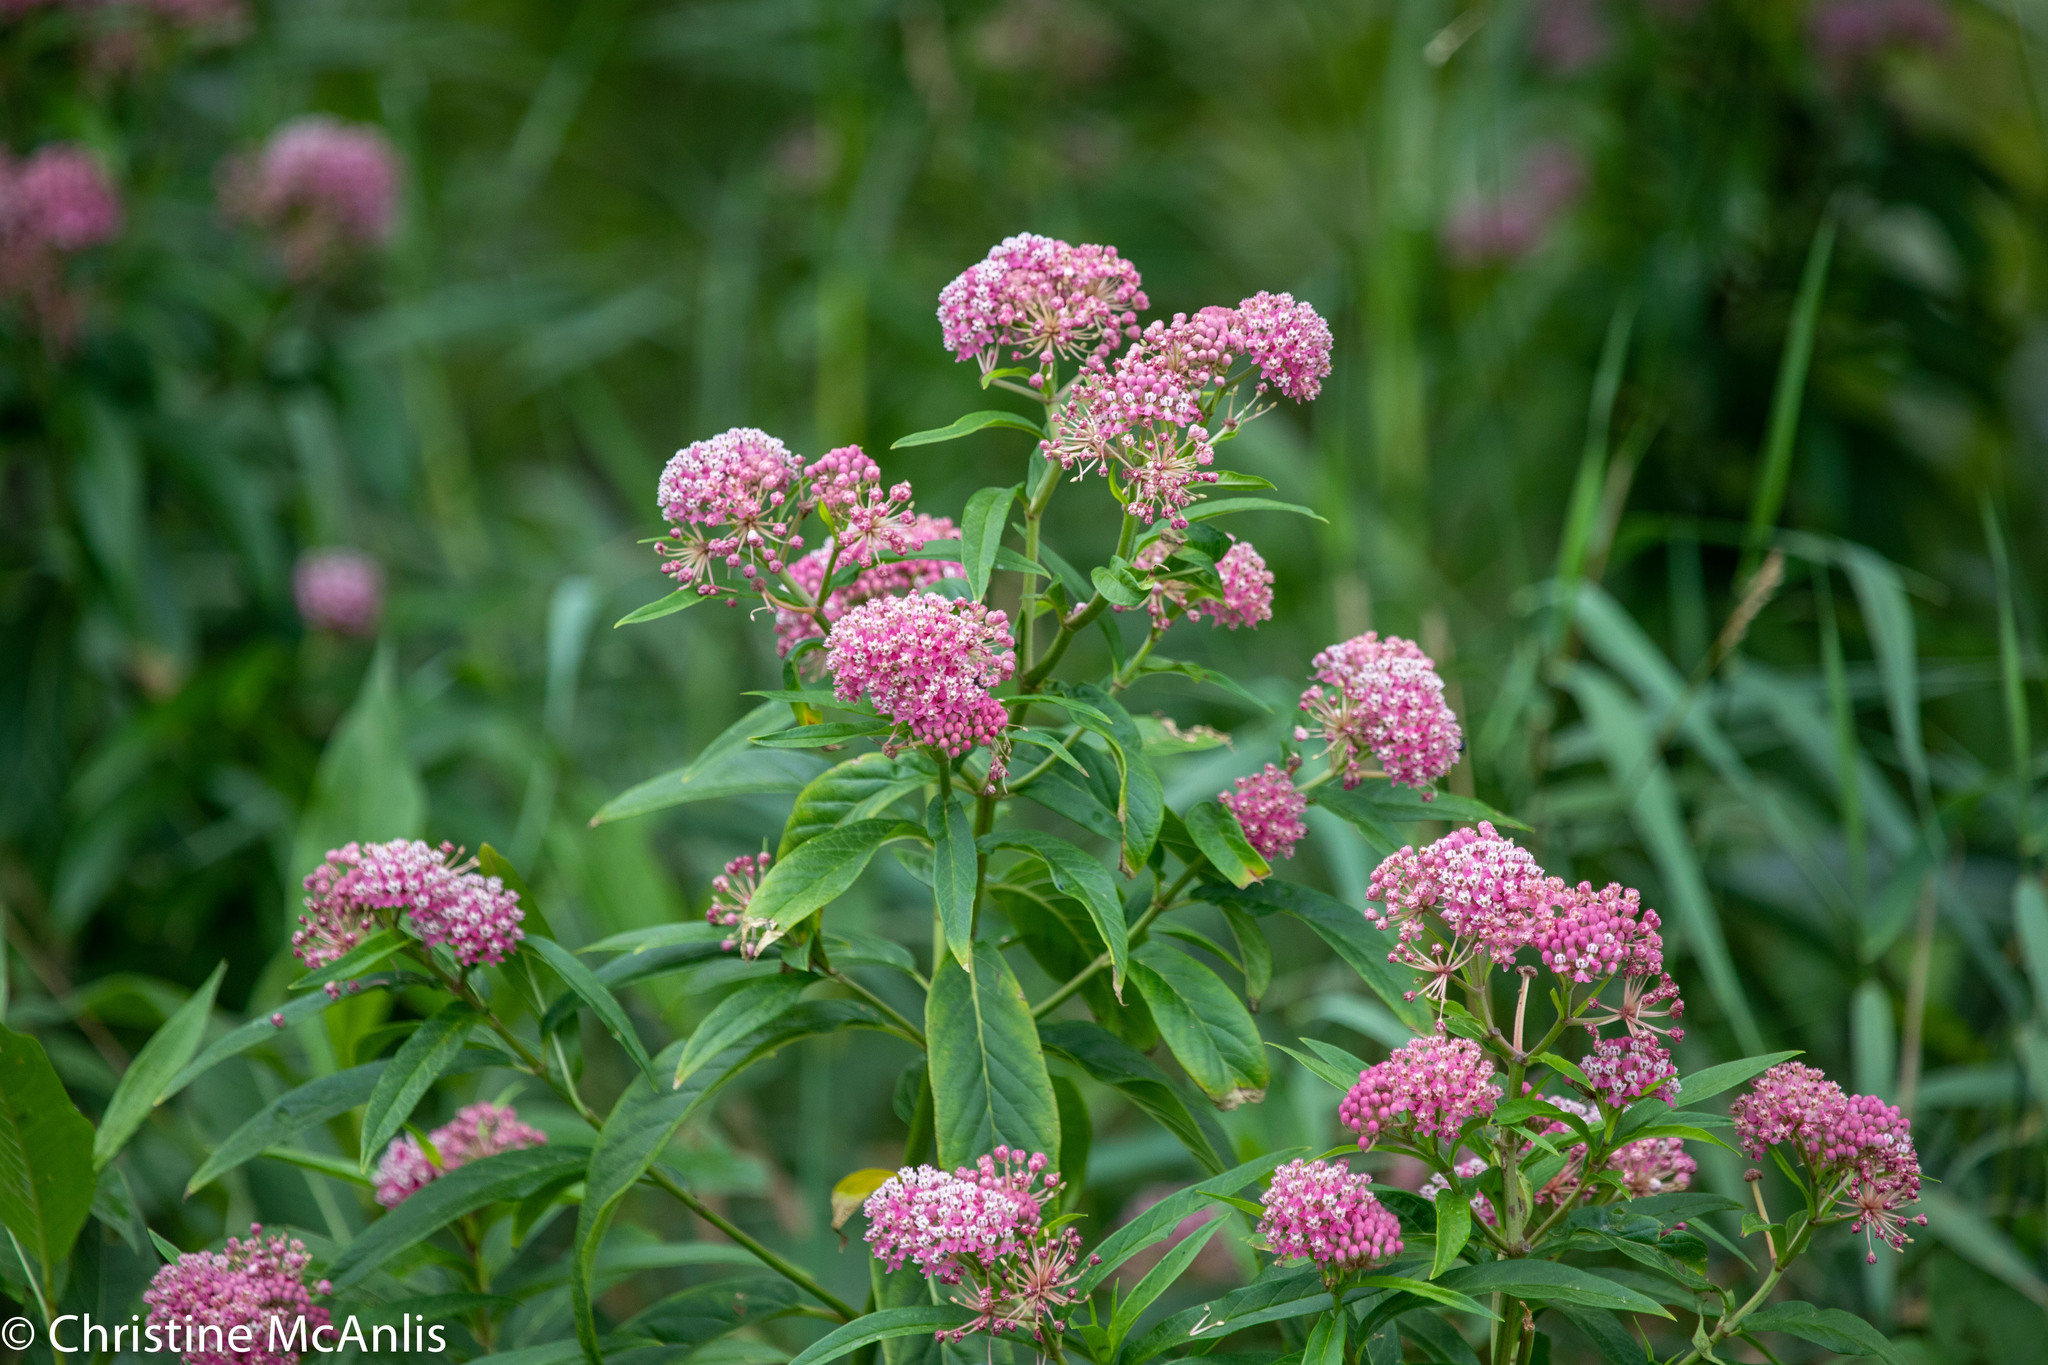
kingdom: Plantae
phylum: Tracheophyta
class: Magnoliopsida
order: Gentianales
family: Apocynaceae
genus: Asclepias
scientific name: Asclepias incarnata
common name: Swamp milkweed
